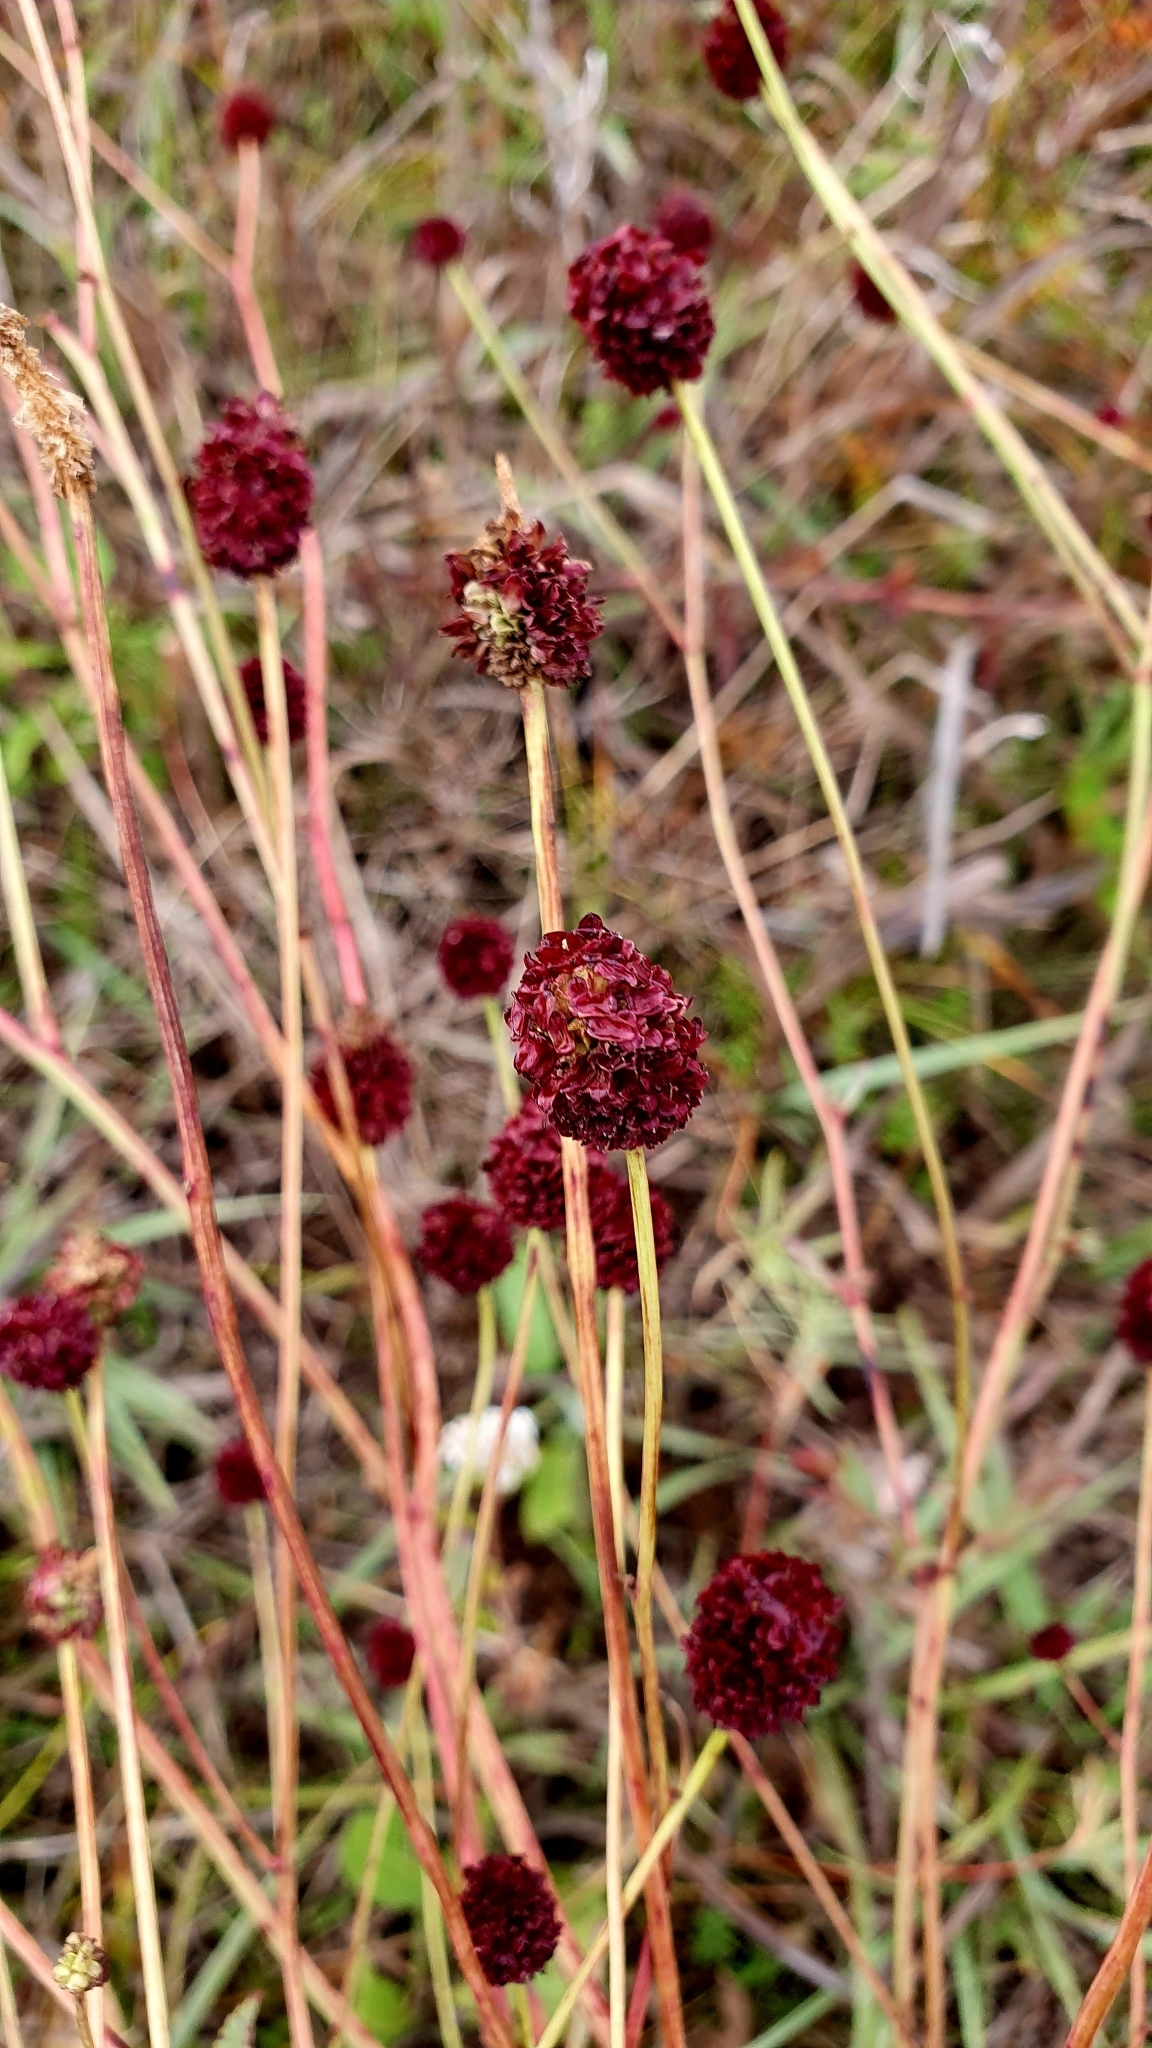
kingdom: Plantae
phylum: Tracheophyta
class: Magnoliopsida
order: Rosales
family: Rosaceae
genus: Sanguisorba
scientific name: Sanguisorba officinalis
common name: Great burnet
